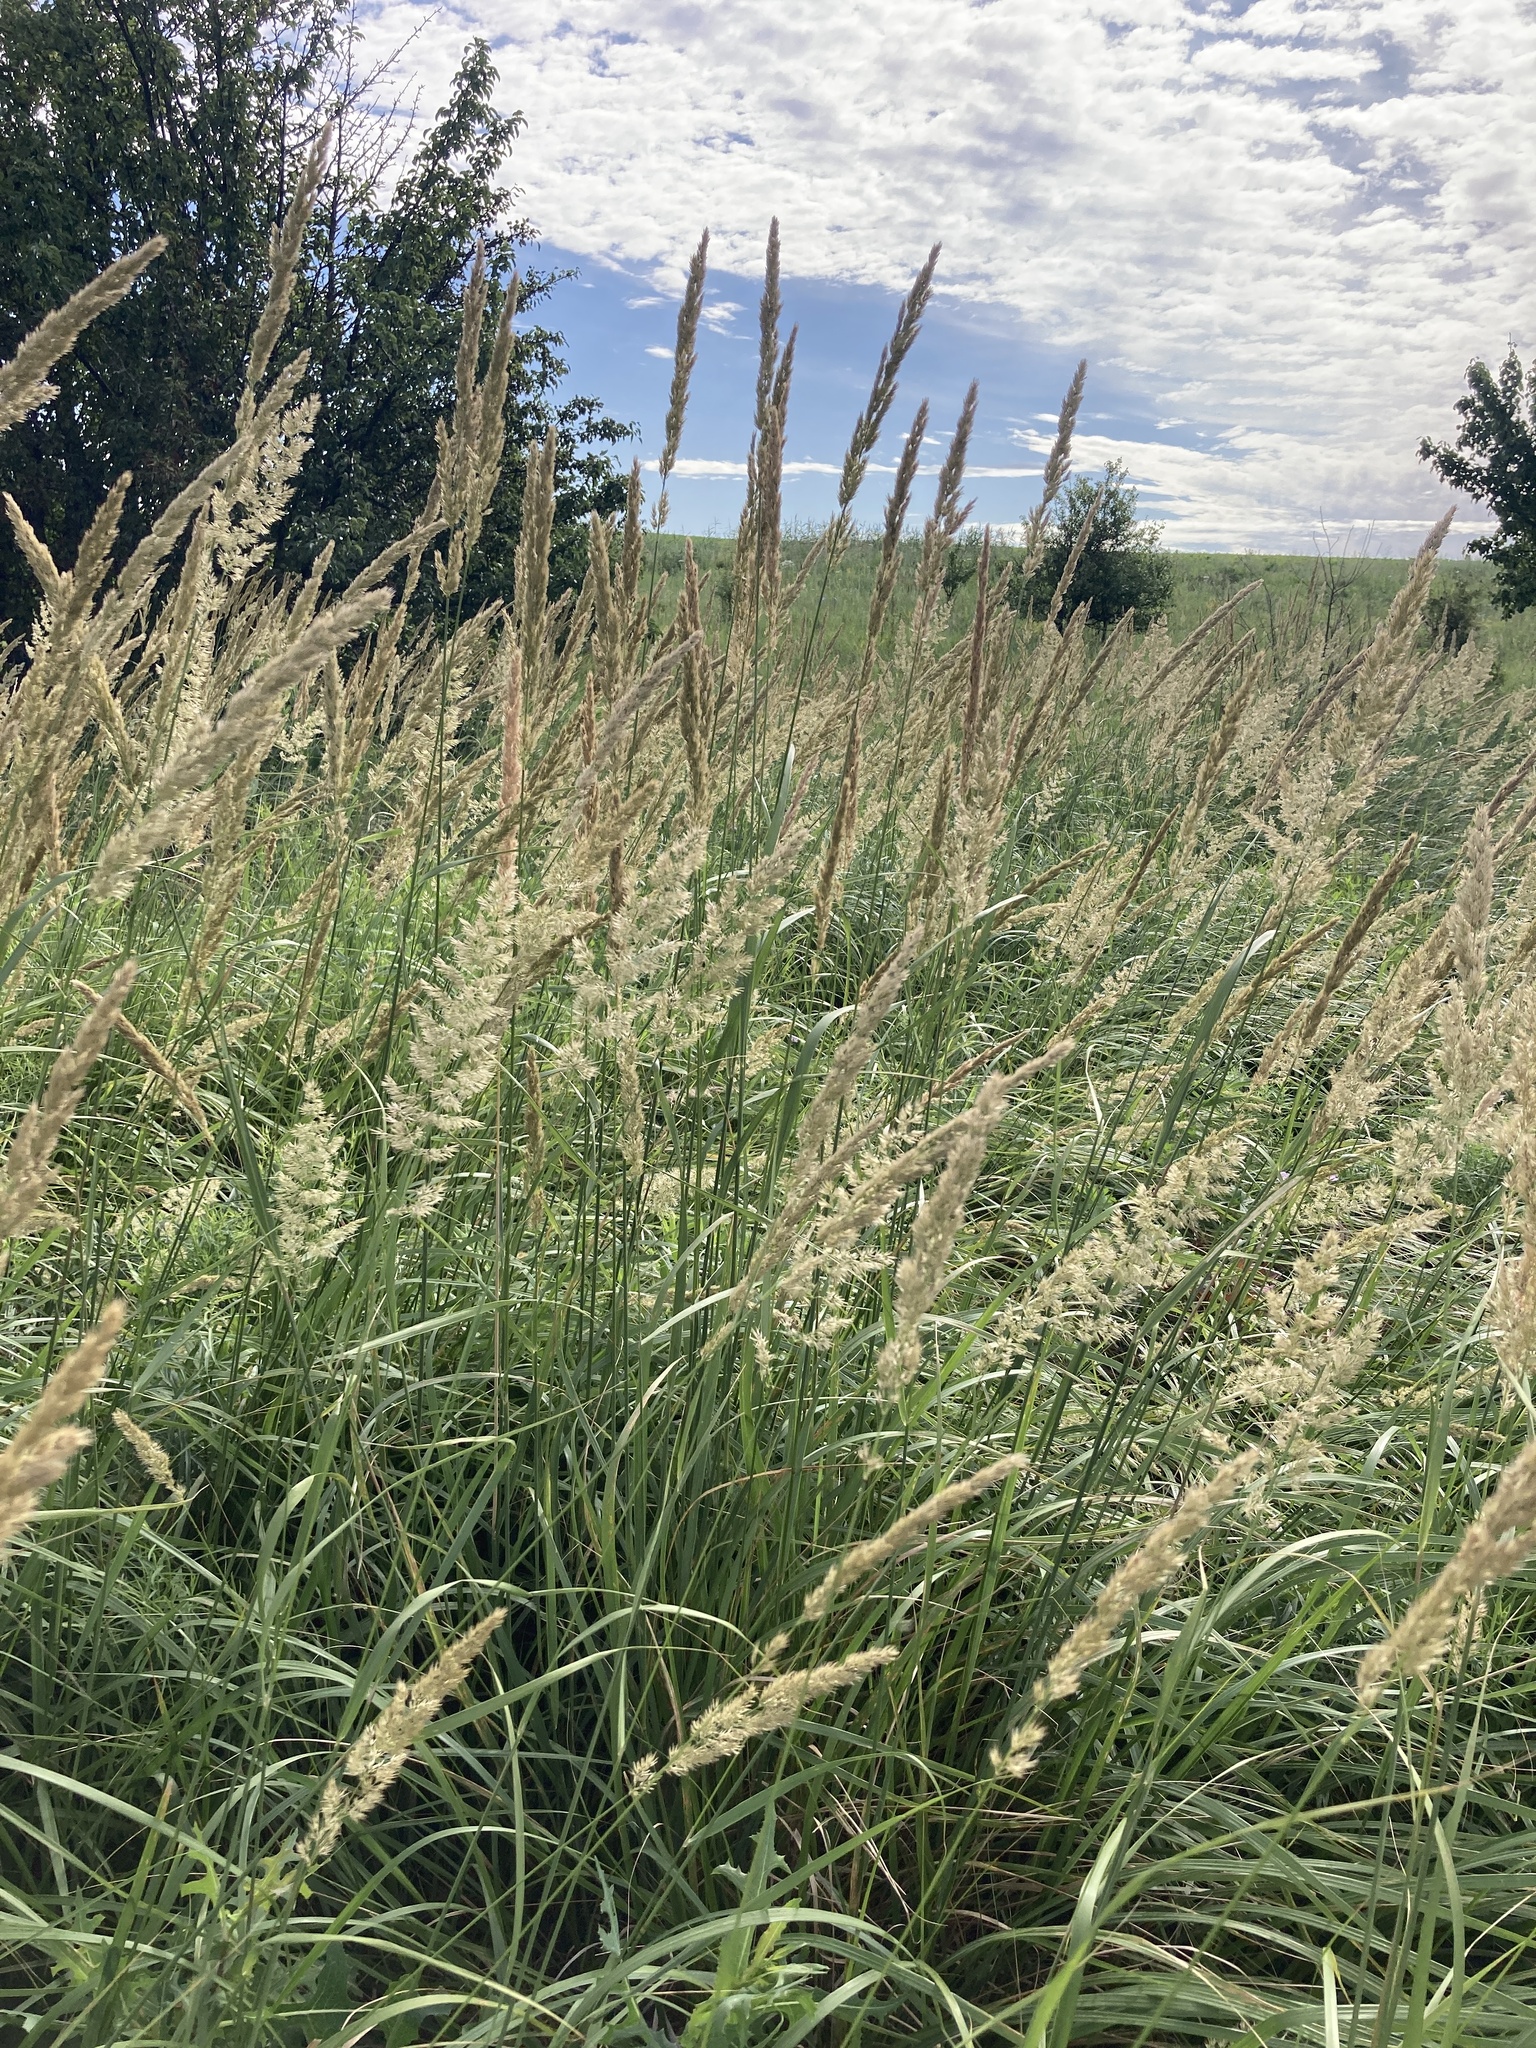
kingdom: Plantae
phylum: Tracheophyta
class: Liliopsida
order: Poales
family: Poaceae
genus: Calamagrostis
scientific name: Calamagrostis epigejos
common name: Wood small-reed
